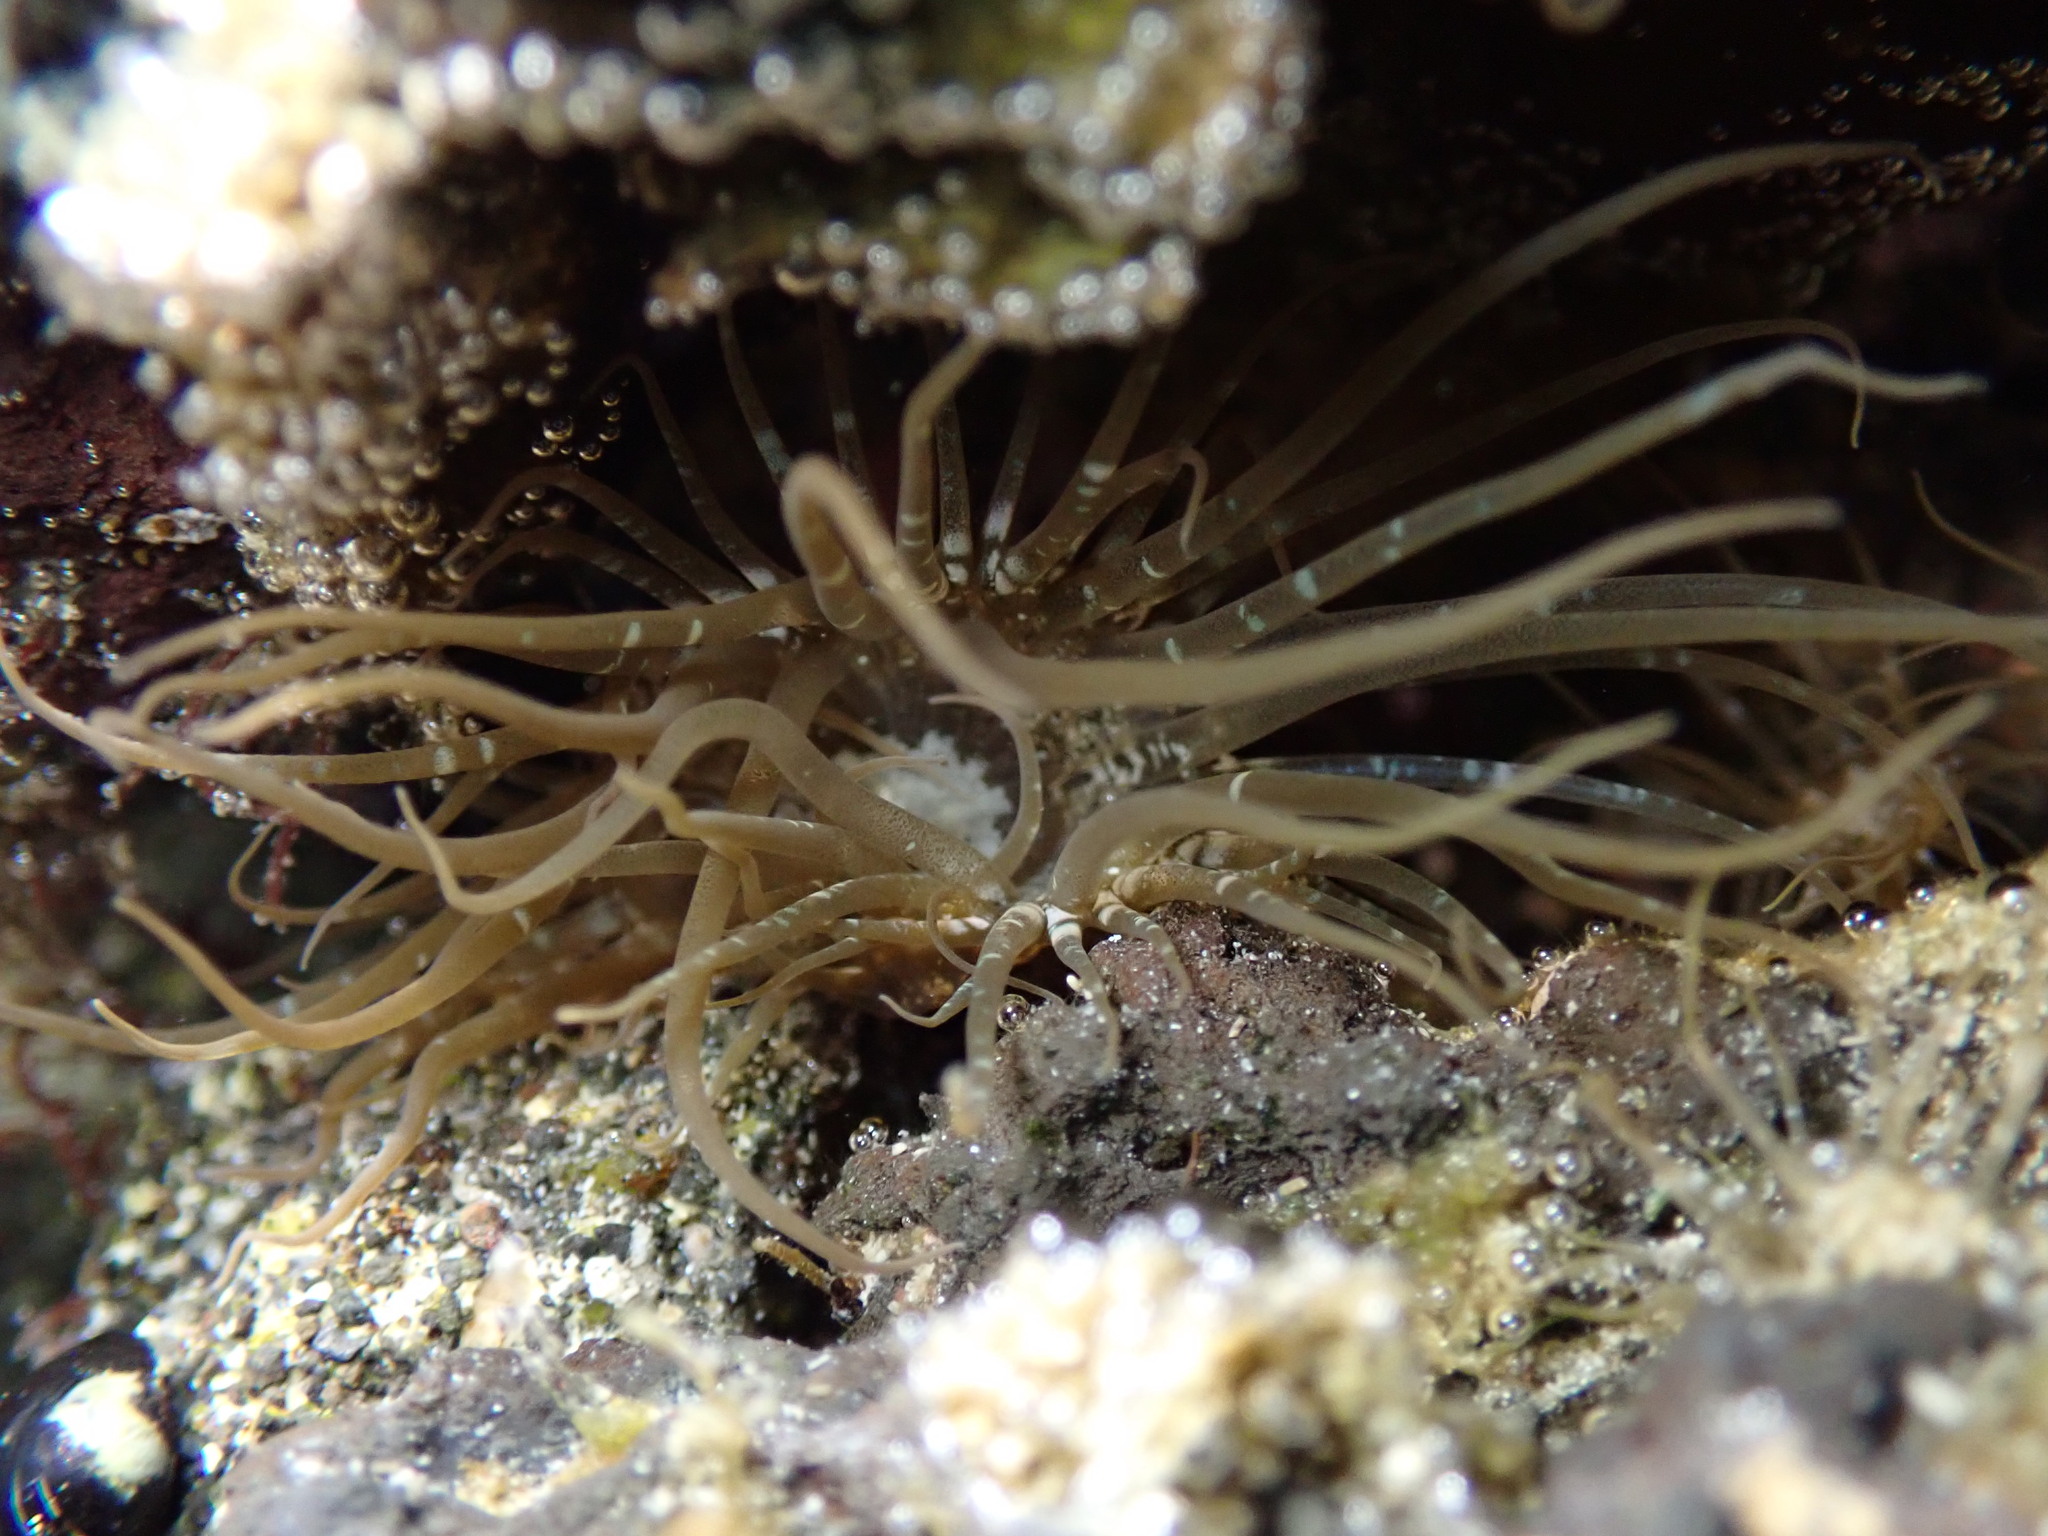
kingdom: Animalia
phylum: Cnidaria
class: Anthozoa
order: Actiniaria
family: Aiptasiidae
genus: Exaiptasia
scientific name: Exaiptasia diaphana
